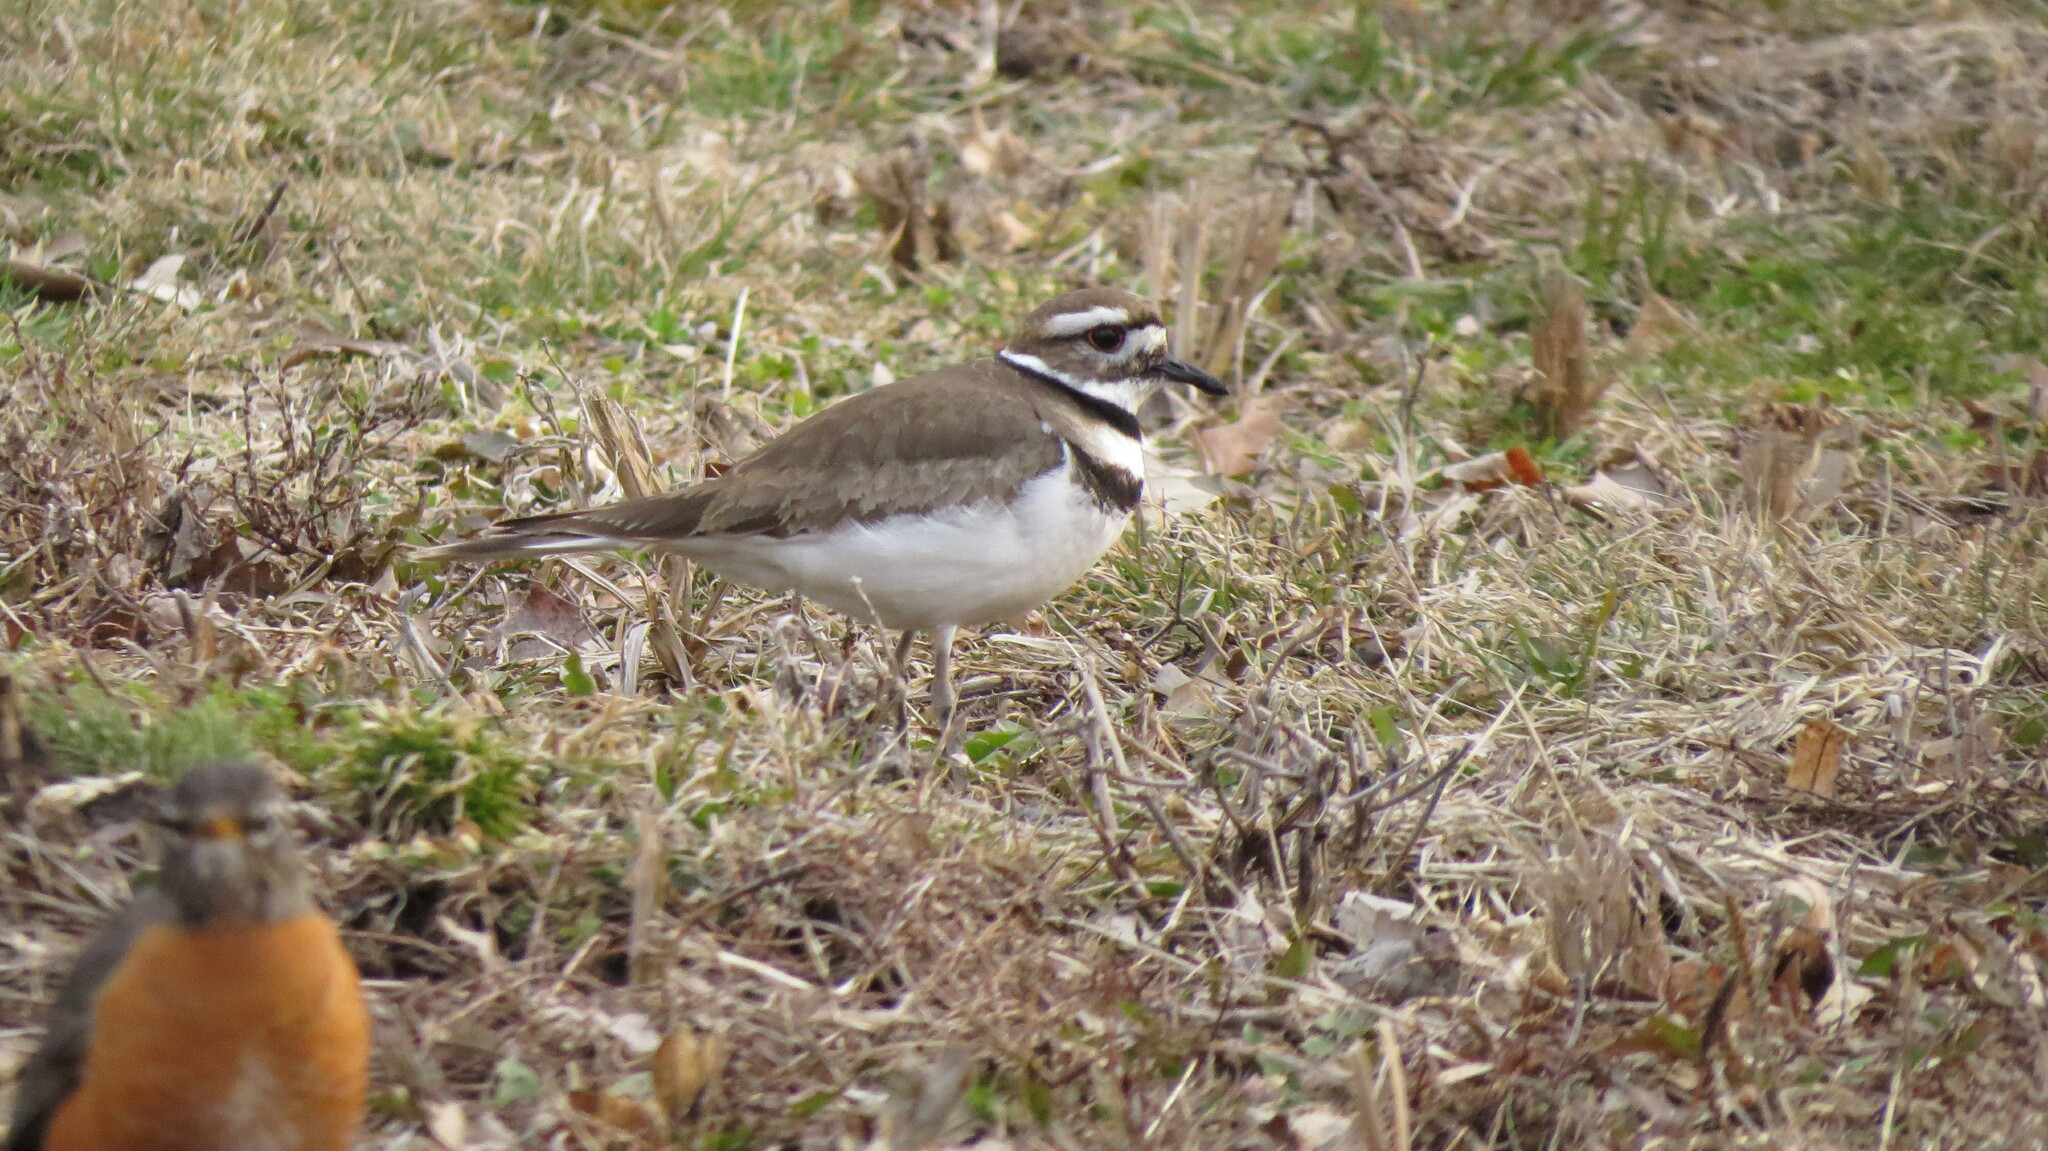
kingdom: Animalia
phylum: Chordata
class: Aves
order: Charadriiformes
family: Charadriidae
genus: Charadrius
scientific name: Charadrius vociferus
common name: Killdeer
